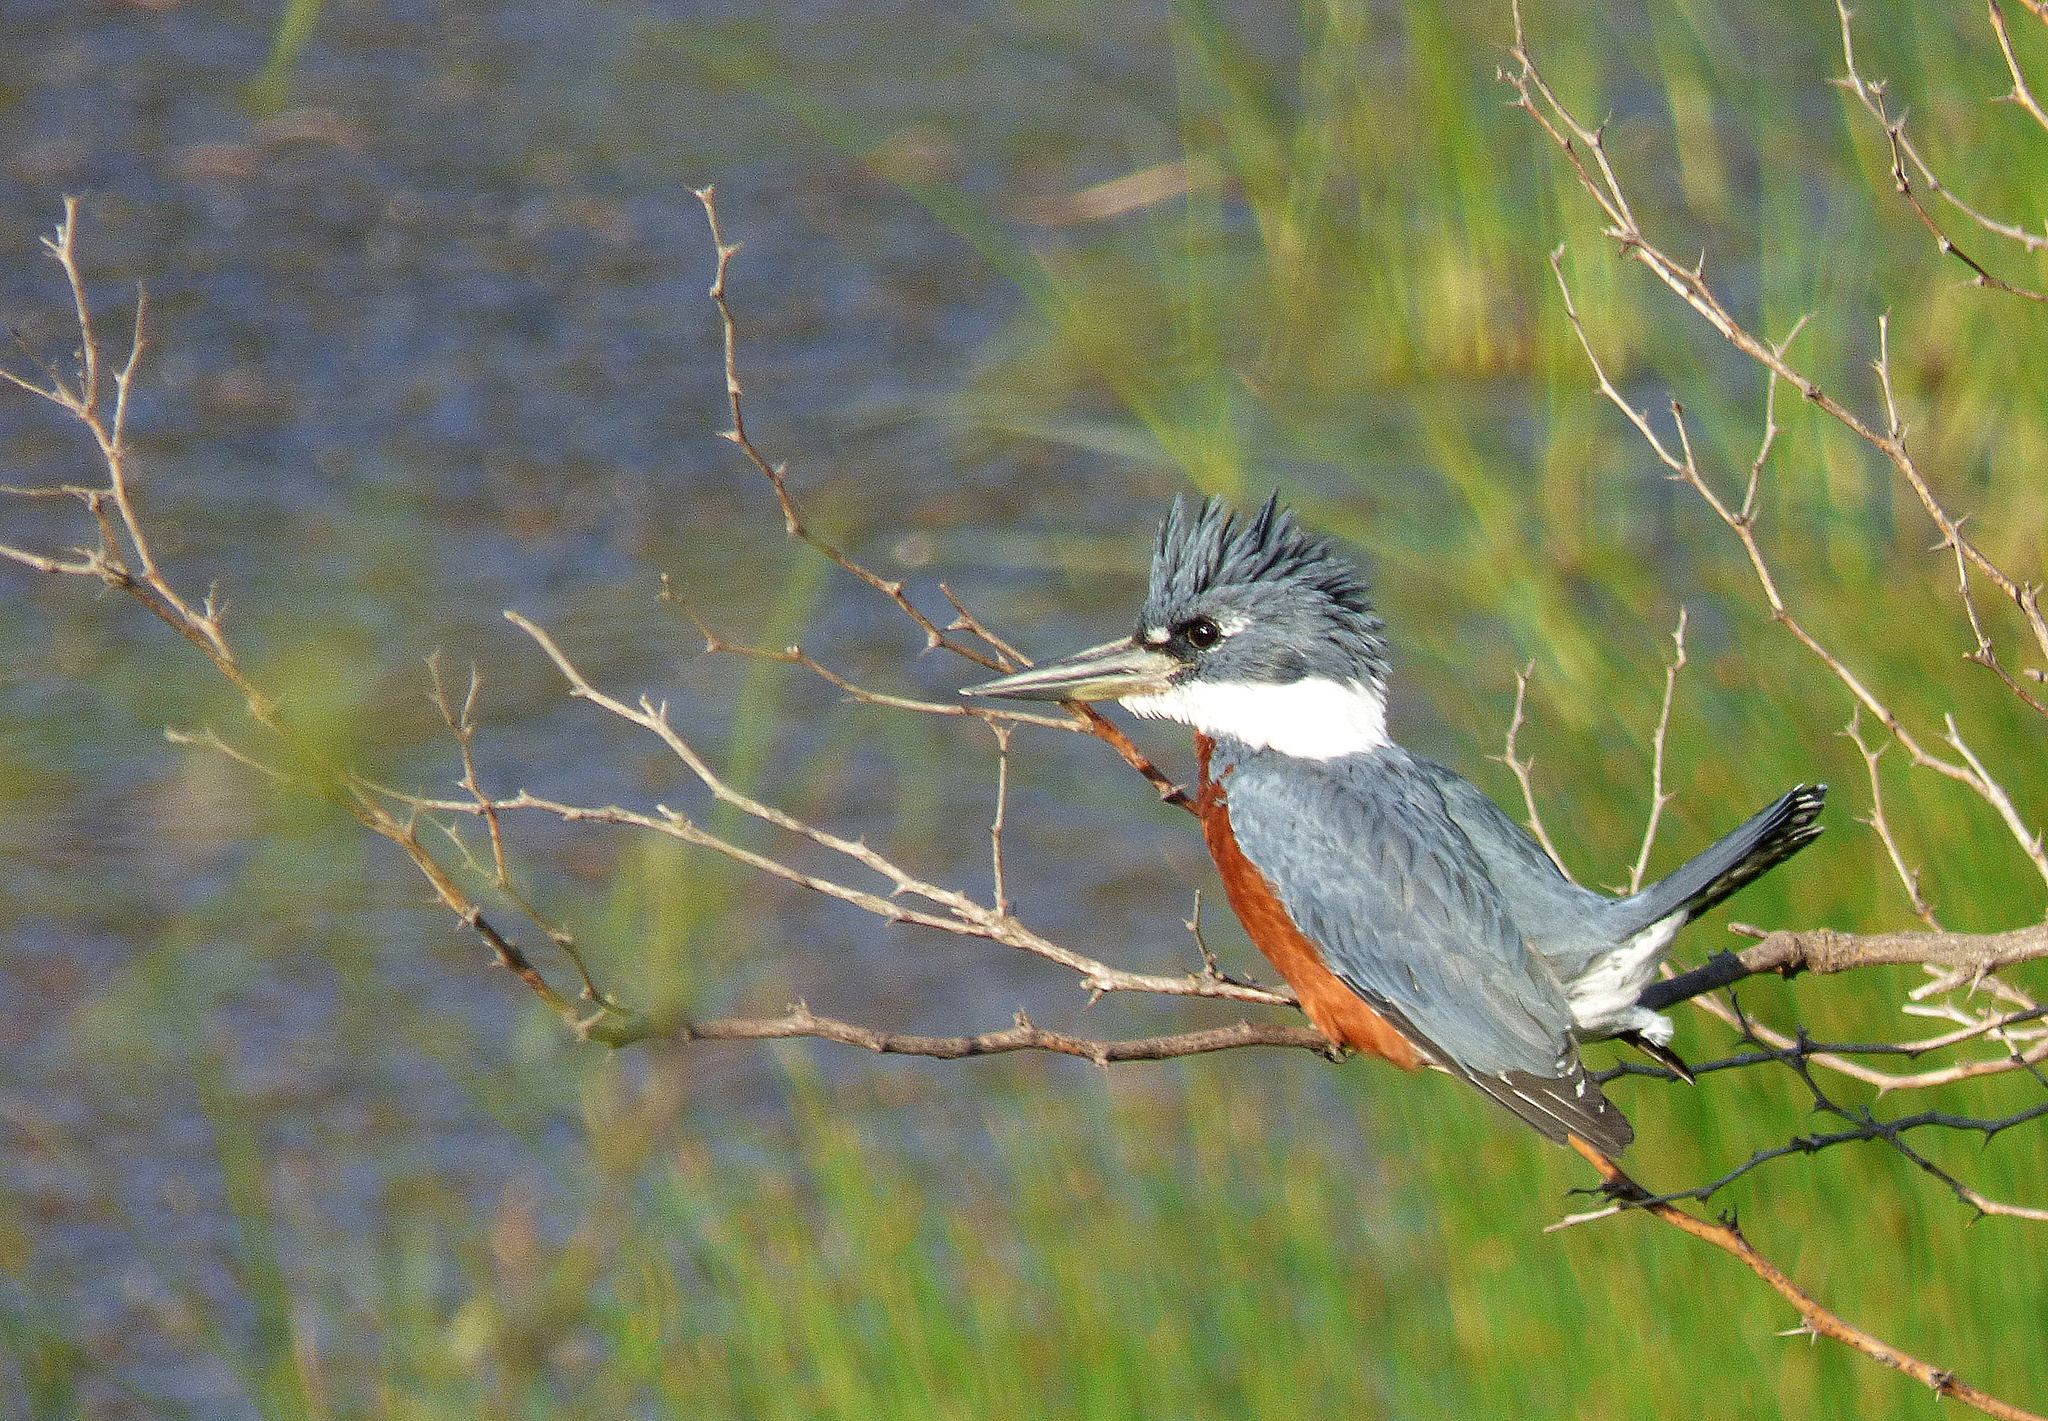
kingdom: Animalia
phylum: Chordata
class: Aves
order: Coraciiformes
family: Alcedinidae
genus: Megaceryle
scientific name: Megaceryle torquata
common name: Ringed kingfisher
